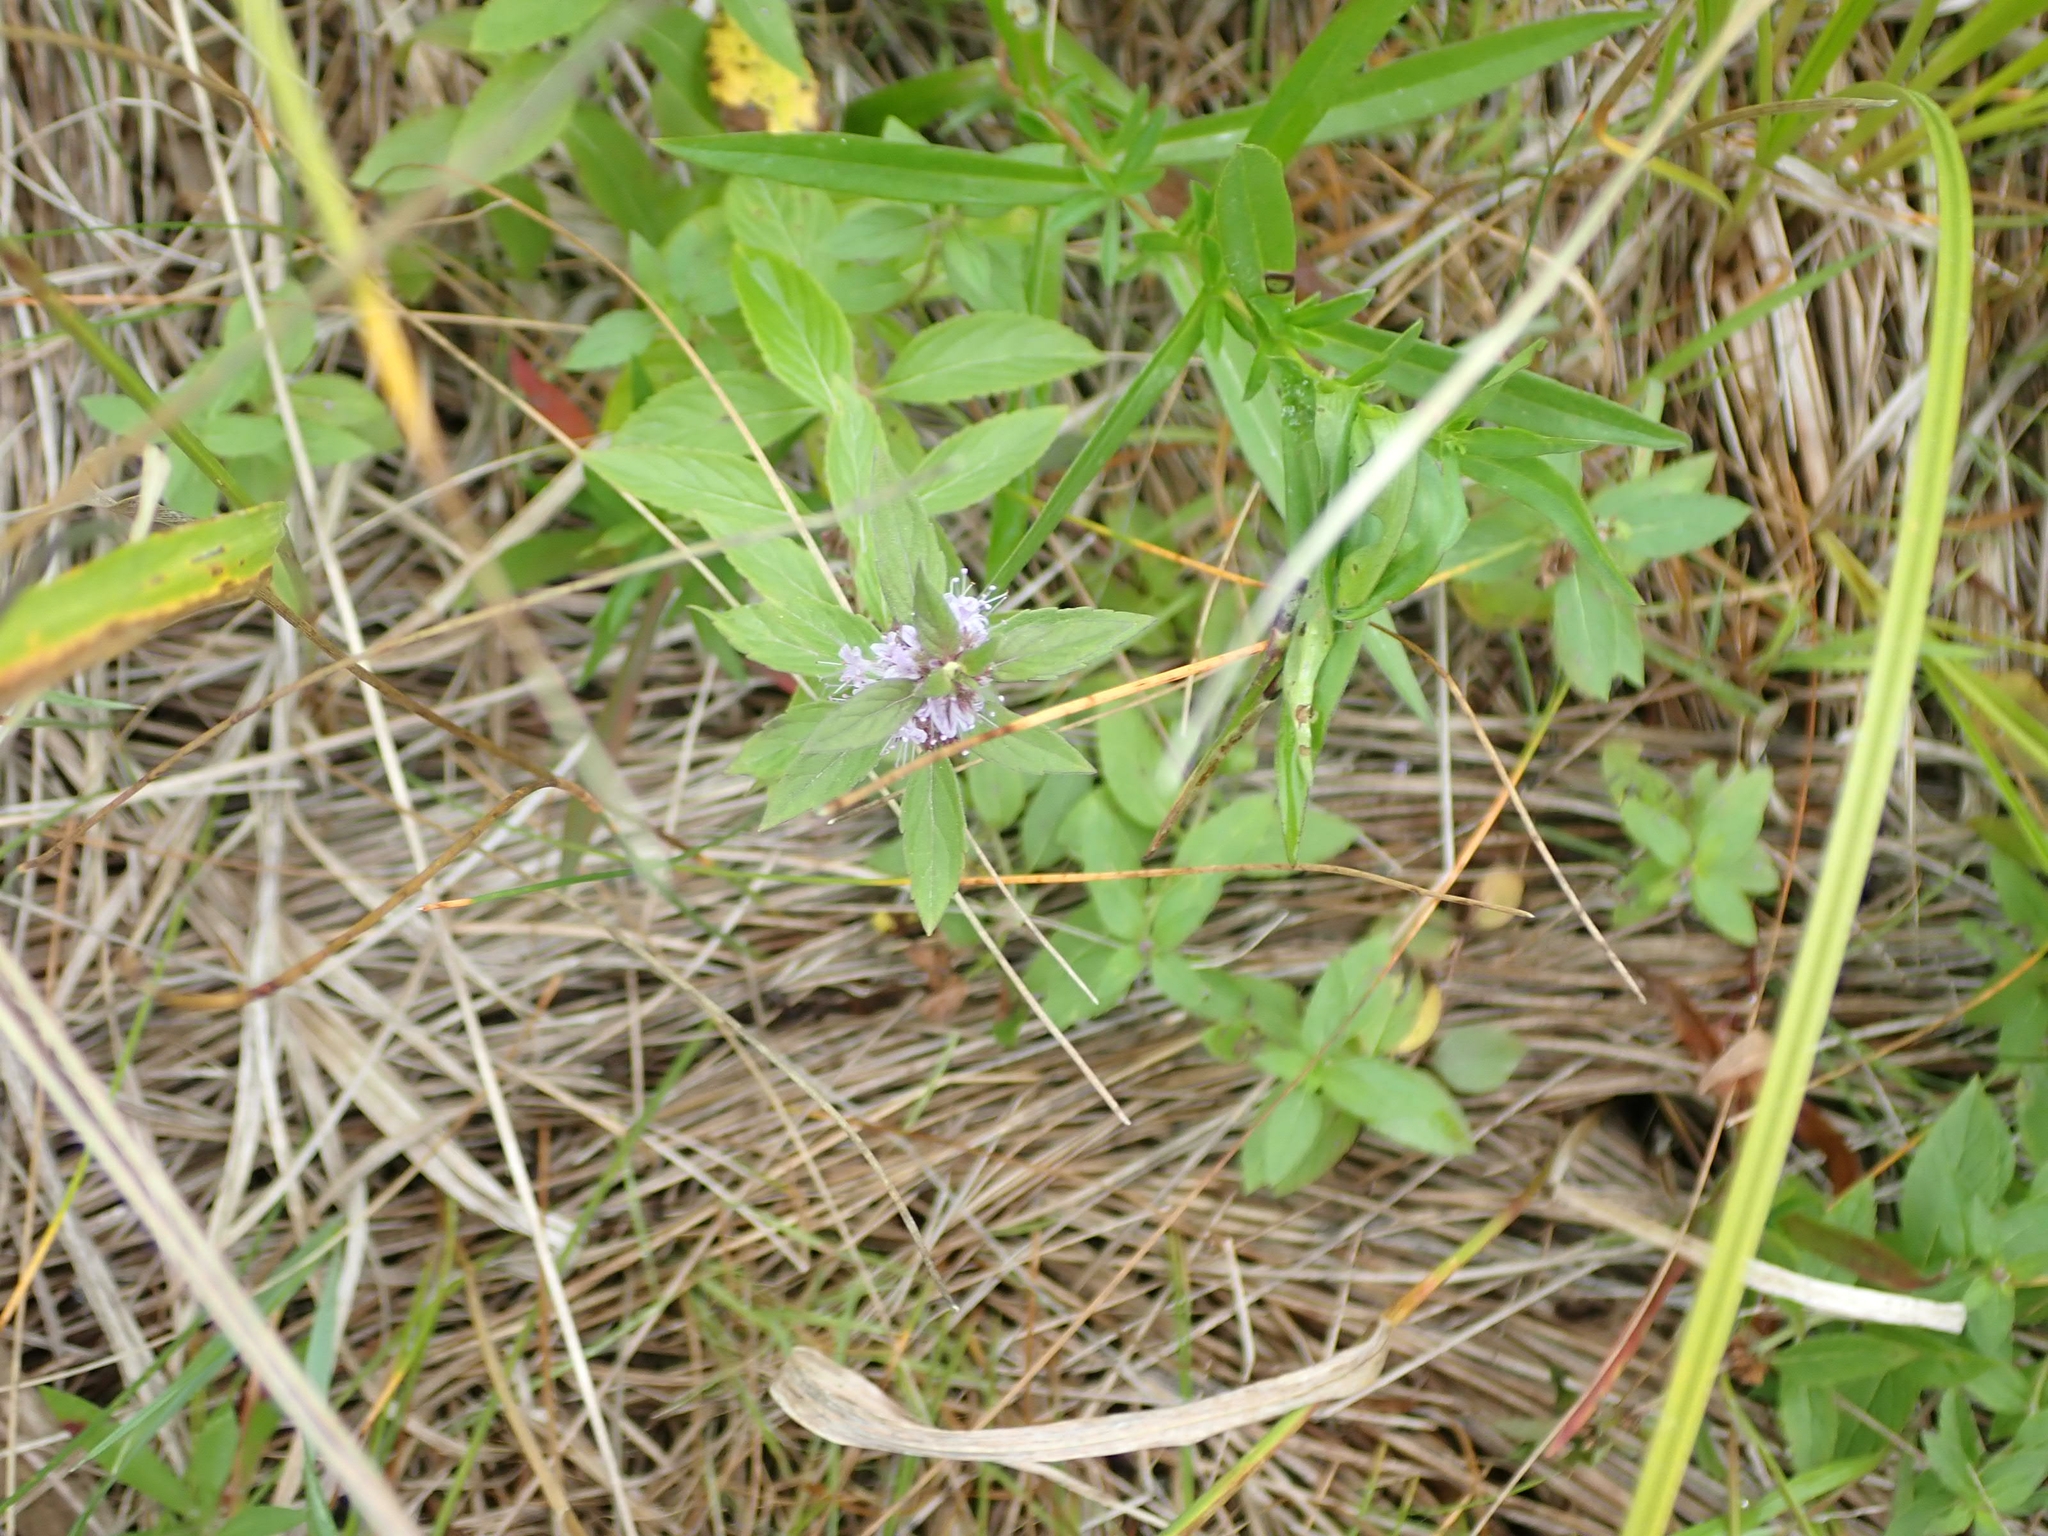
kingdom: Plantae
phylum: Tracheophyta
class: Magnoliopsida
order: Lamiales
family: Lamiaceae
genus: Mentha
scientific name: Mentha canadensis
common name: American corn mint
